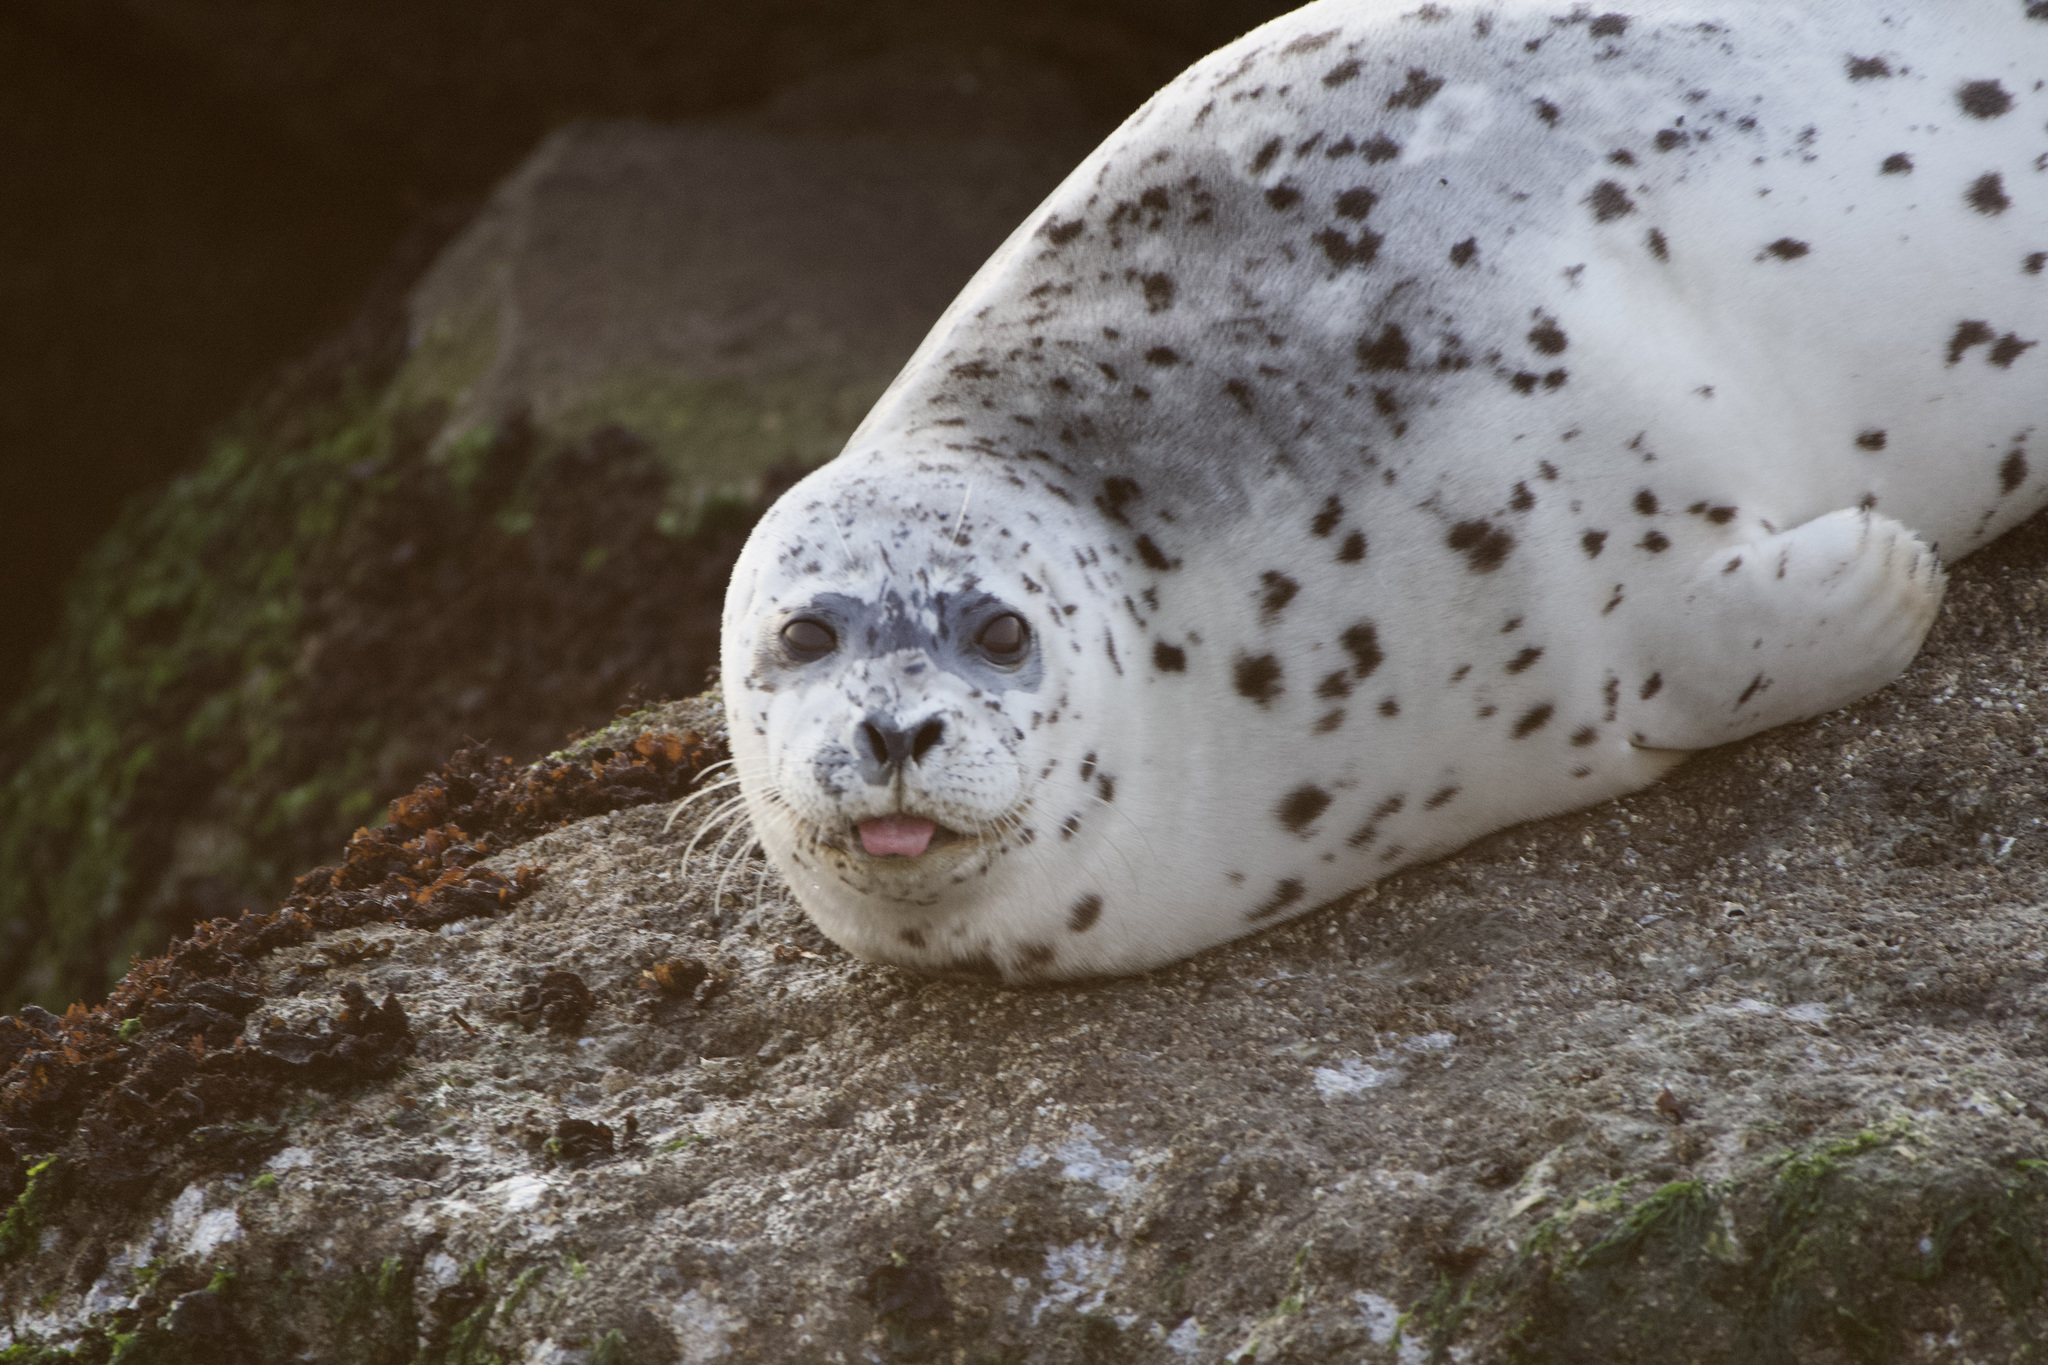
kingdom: Animalia
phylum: Chordata
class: Mammalia
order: Carnivora
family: Phocidae
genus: Phoca
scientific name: Phoca vitulina
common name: Harbor seal
